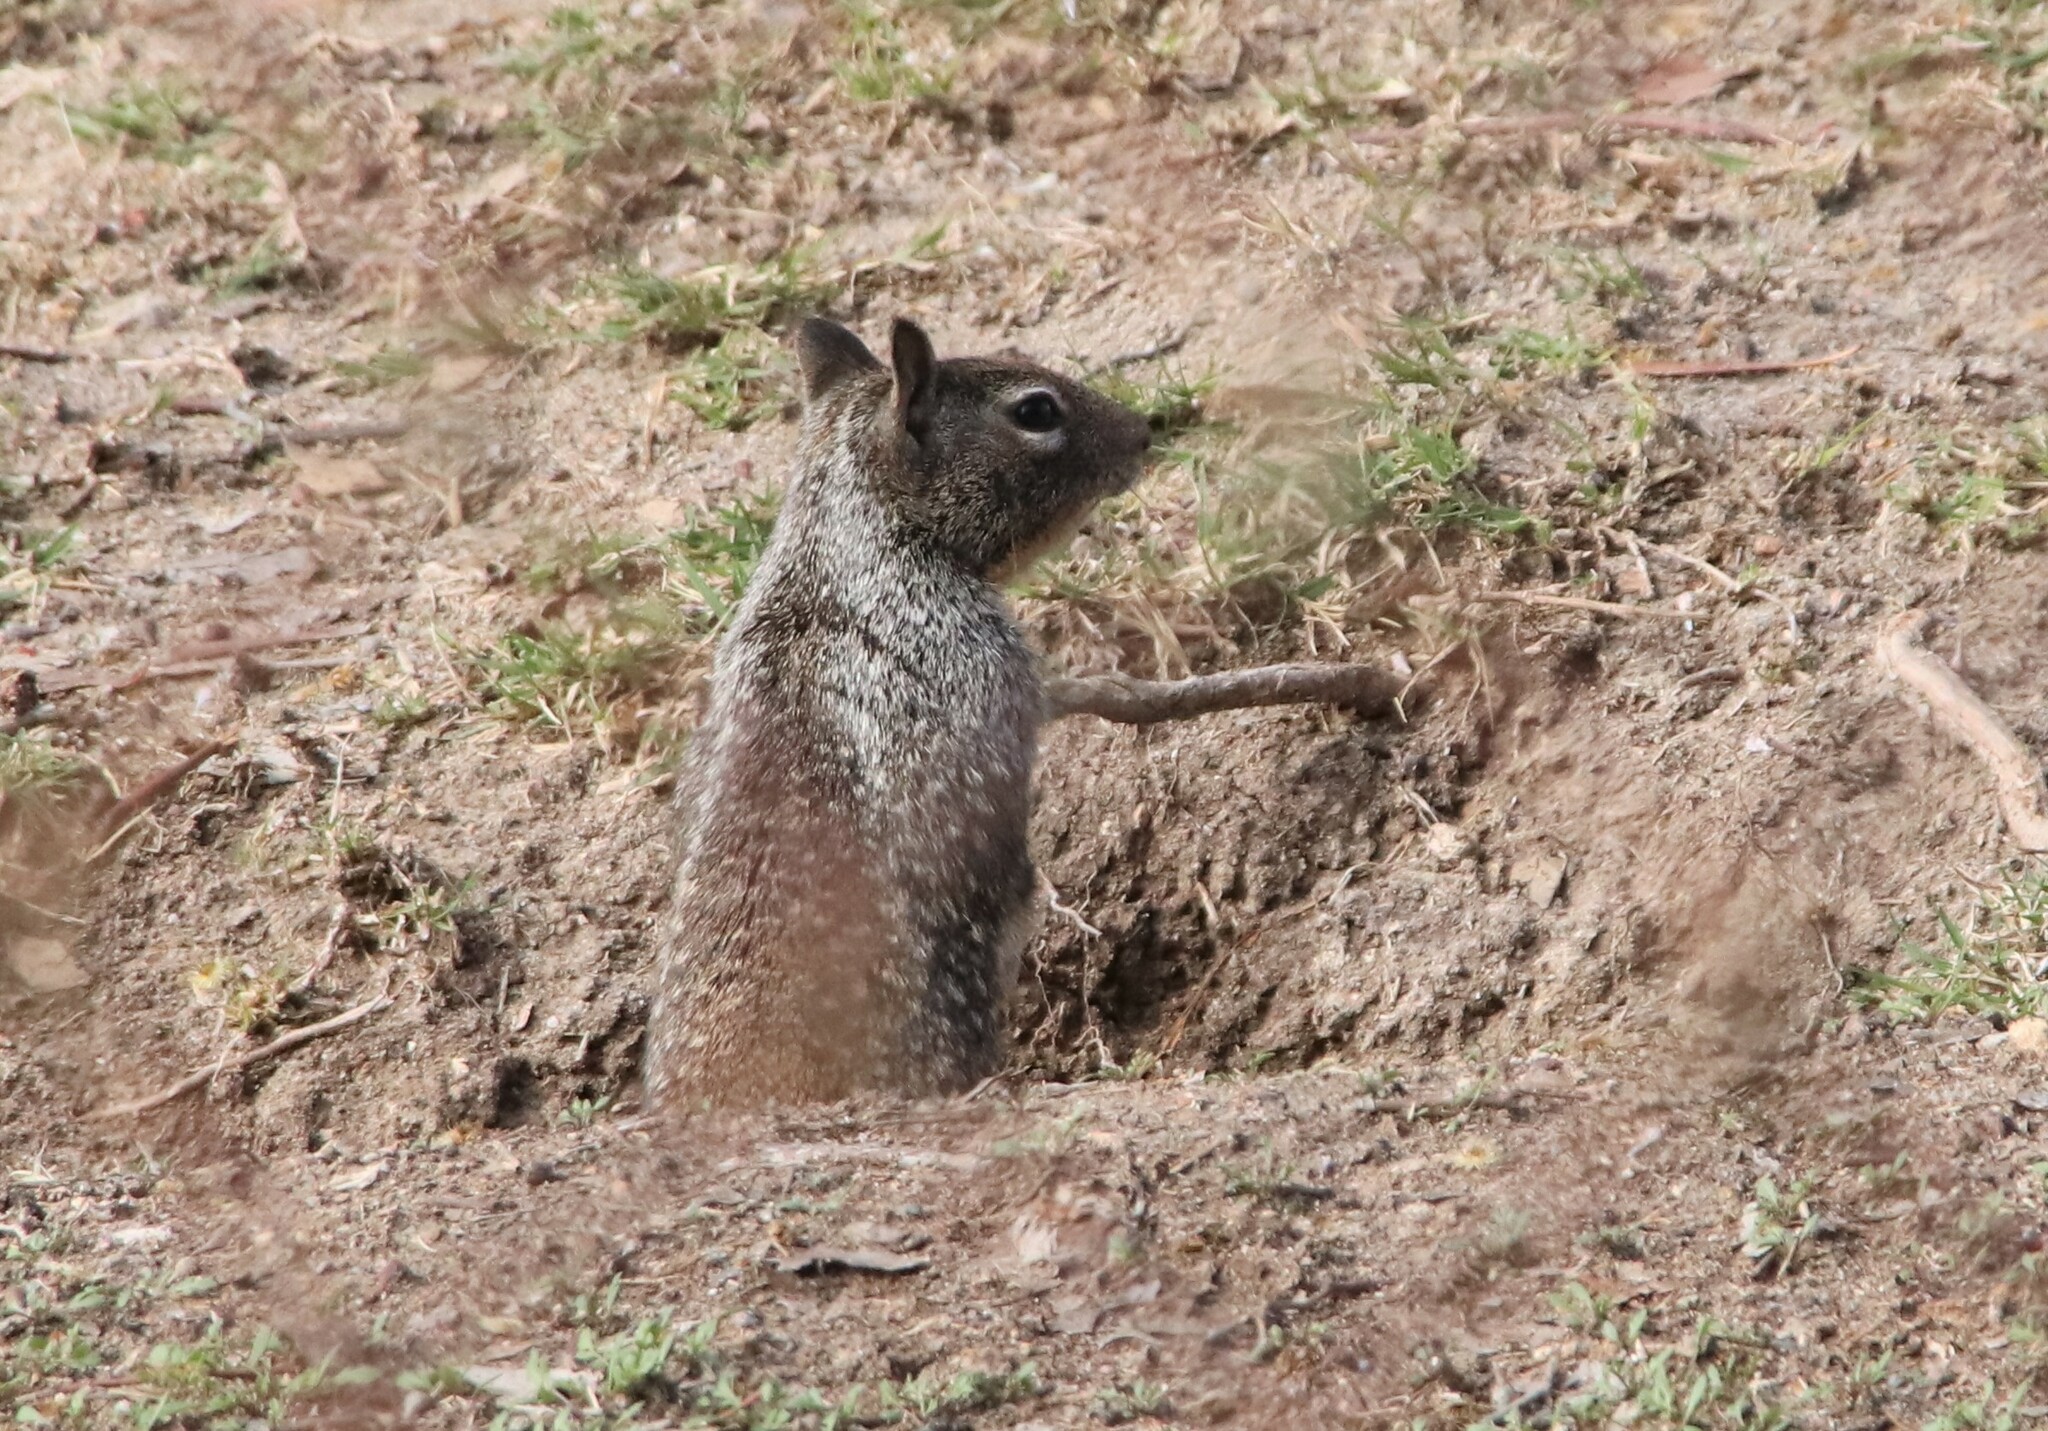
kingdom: Animalia
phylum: Chordata
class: Mammalia
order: Rodentia
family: Sciuridae
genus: Otospermophilus
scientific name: Otospermophilus beecheyi
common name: California ground squirrel
